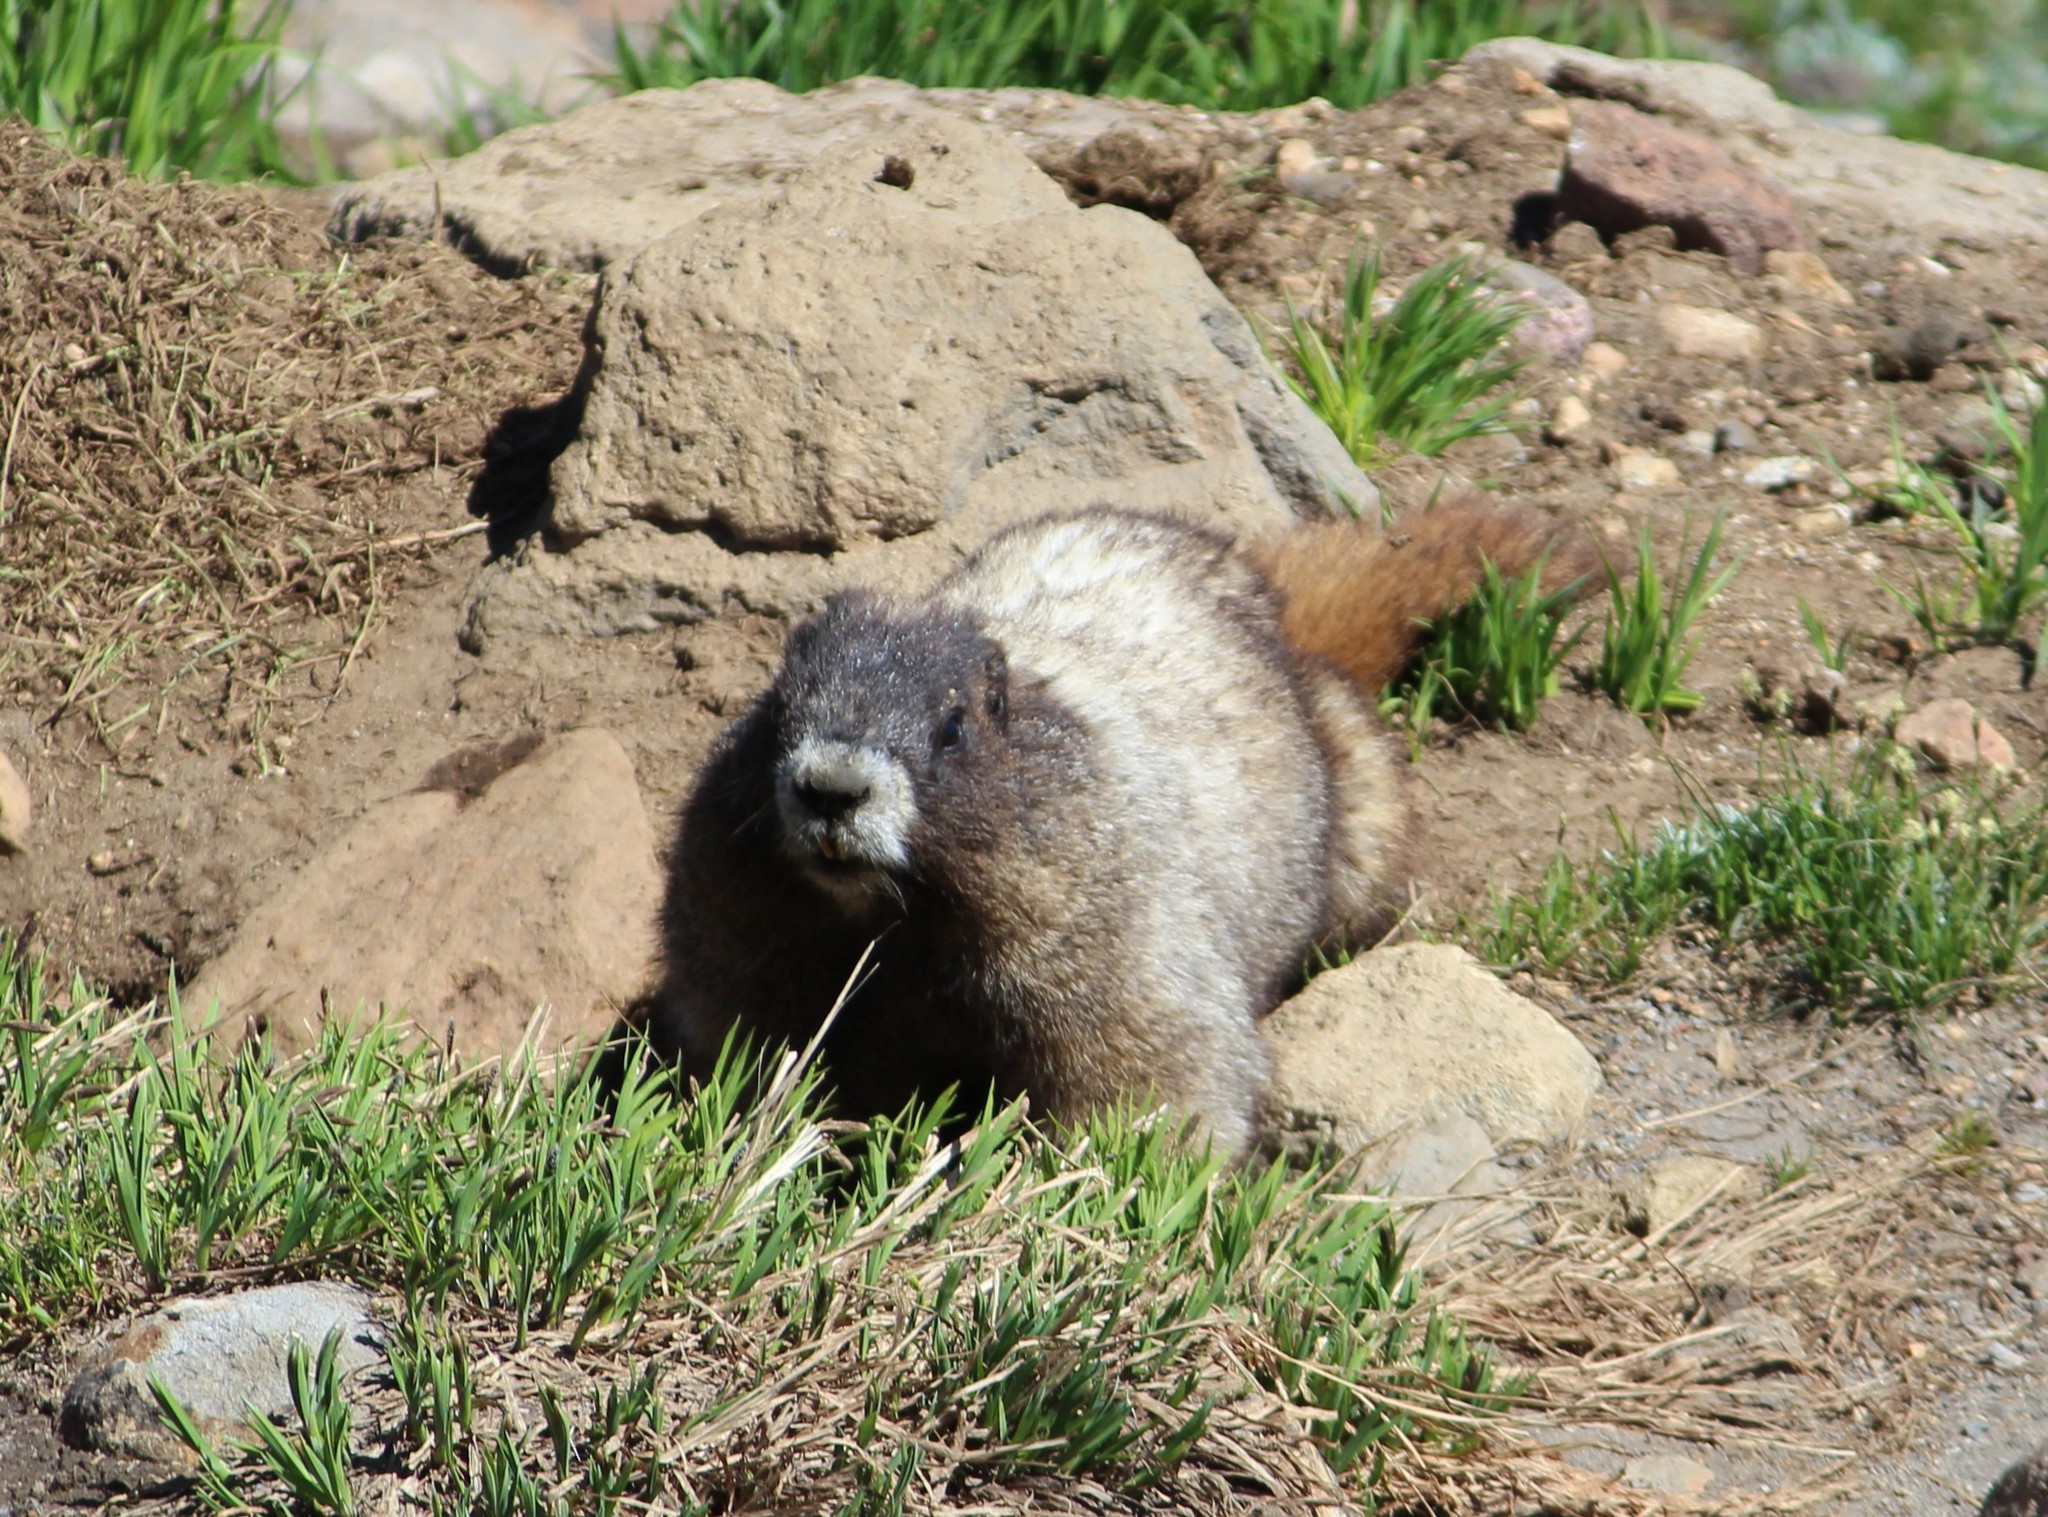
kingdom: Animalia
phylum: Chordata
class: Mammalia
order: Rodentia
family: Sciuridae
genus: Marmota
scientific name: Marmota caligata
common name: Hoary marmot
